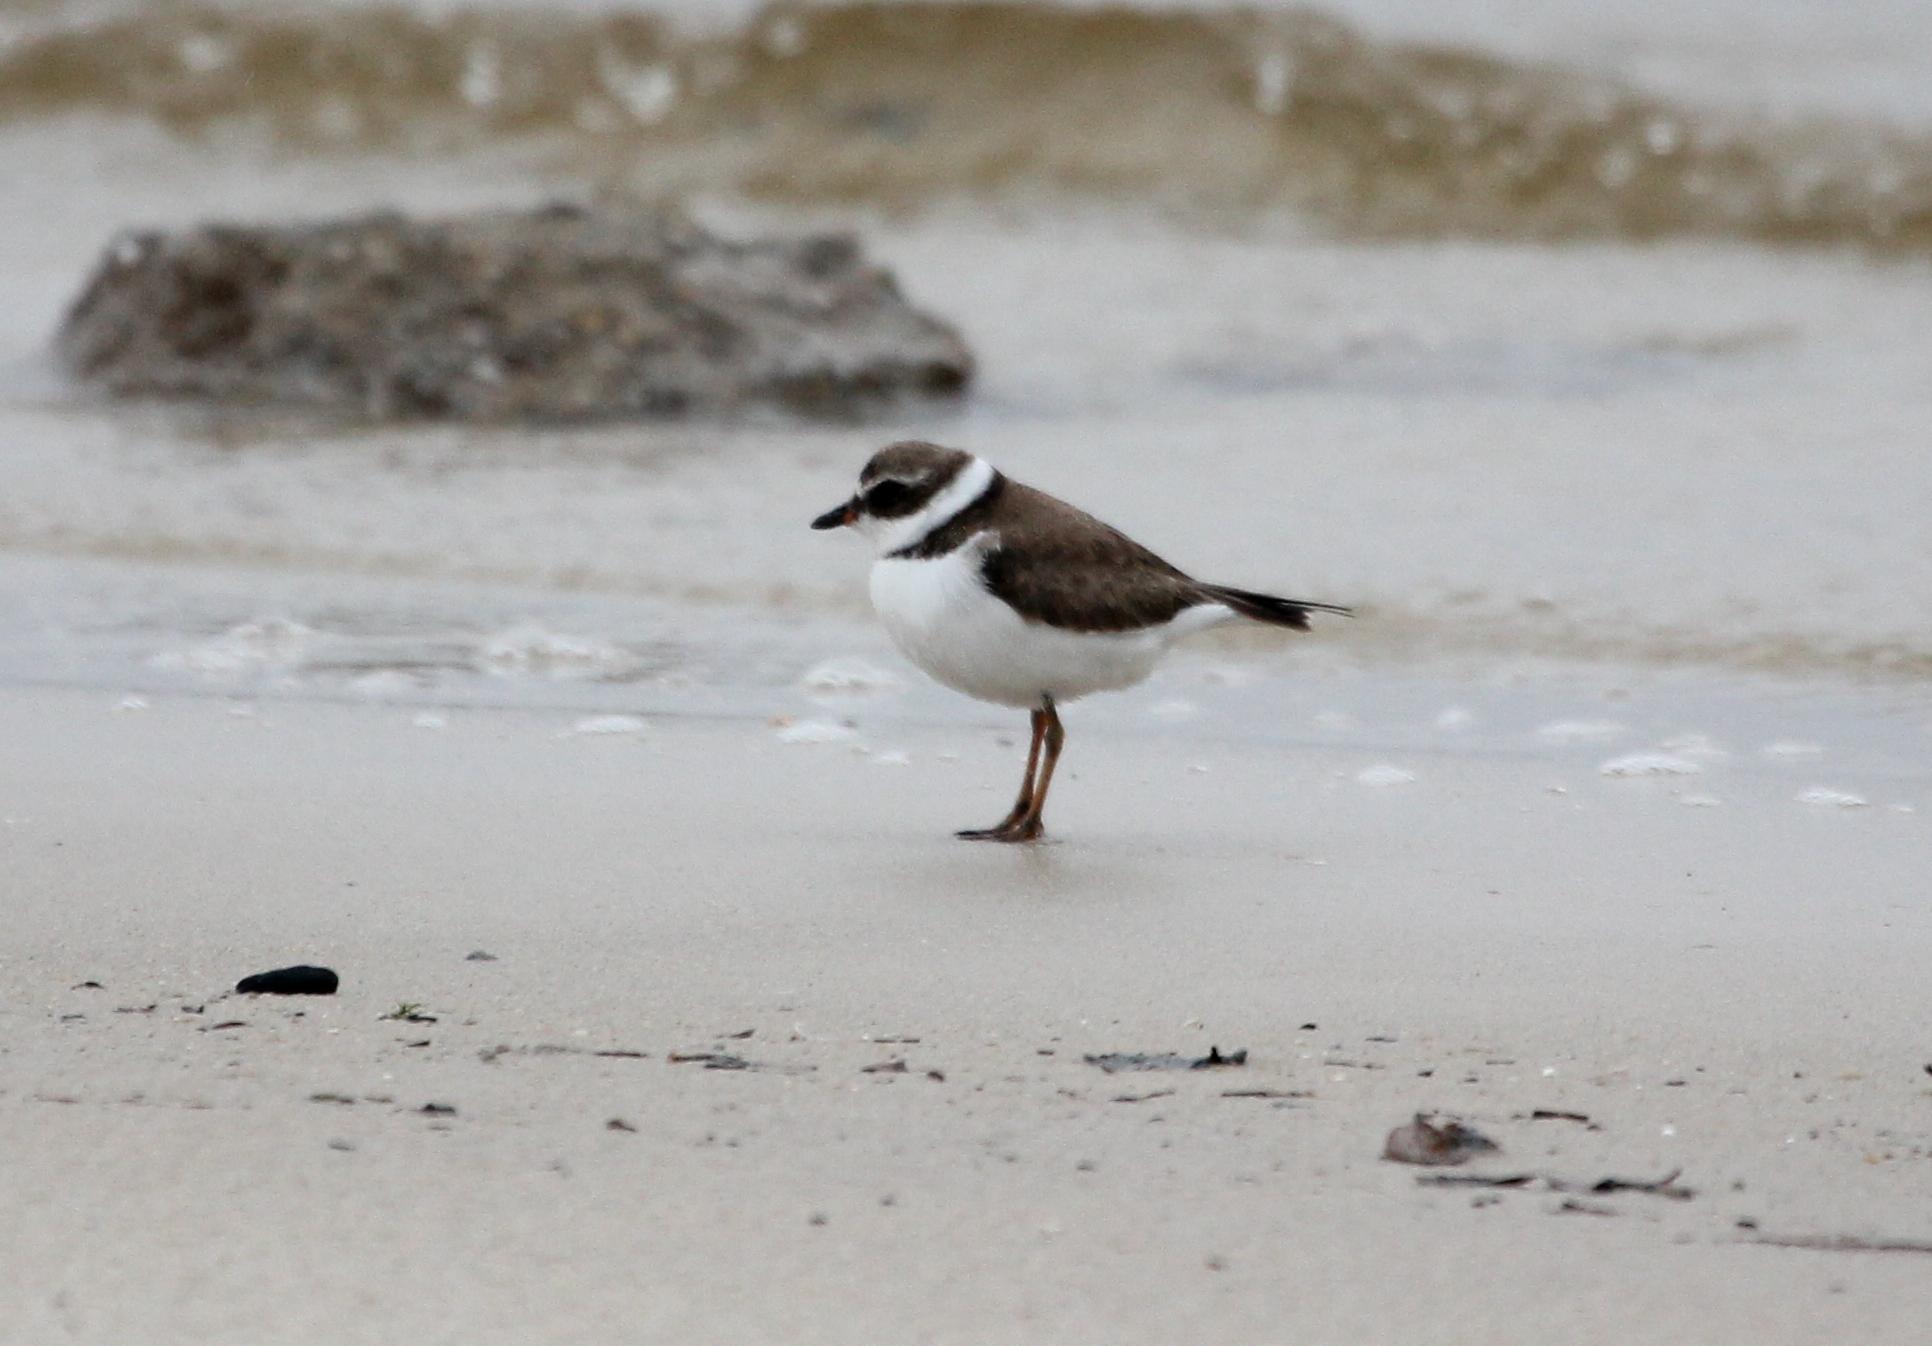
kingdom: Animalia
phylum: Chordata
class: Aves
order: Charadriiformes
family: Charadriidae
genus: Charadrius
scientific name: Charadrius semipalmatus
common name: Semipalmated plover
